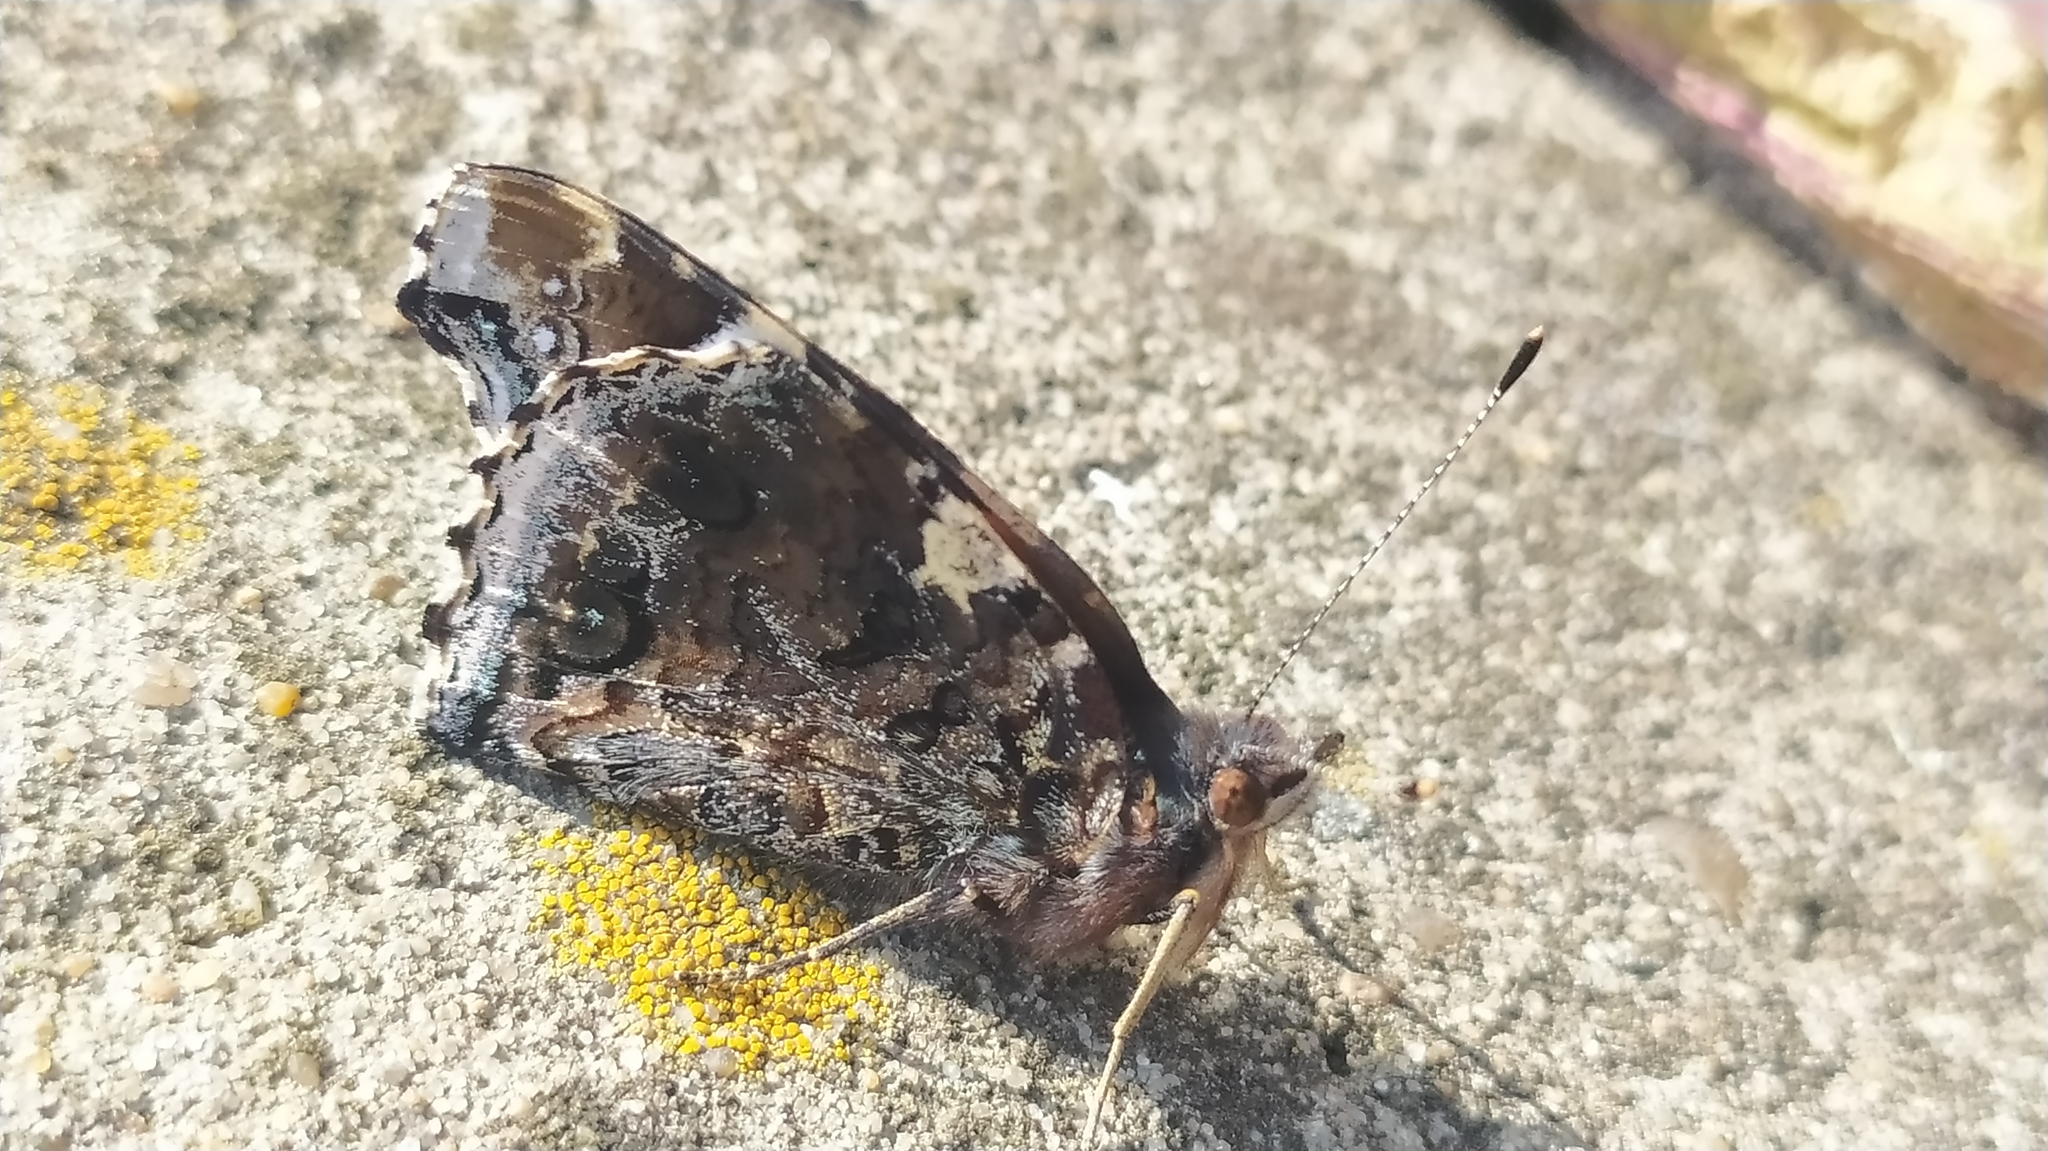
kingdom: Animalia
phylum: Arthropoda
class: Insecta
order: Lepidoptera
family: Nymphalidae
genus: Vanessa
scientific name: Vanessa atalanta
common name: Red admiral
